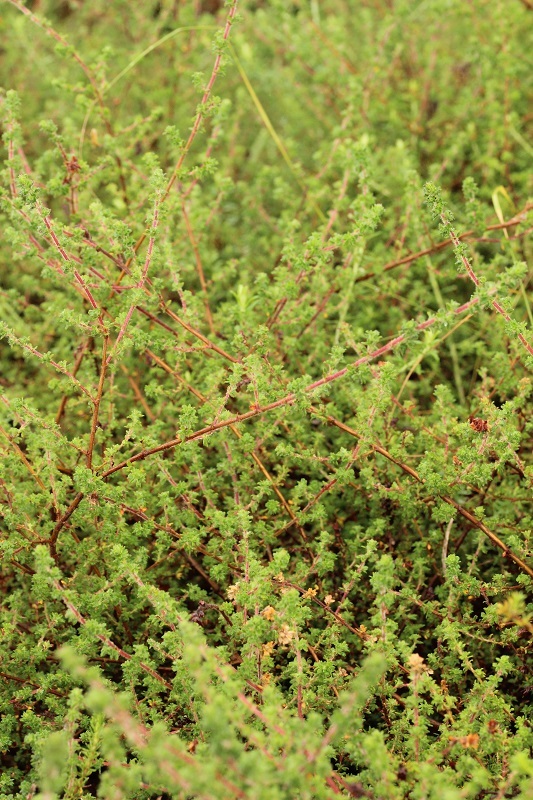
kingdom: Plantae
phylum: Tracheophyta
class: Magnoliopsida
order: Rosales
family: Rosaceae
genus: Cliffortia
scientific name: Cliffortia filicaulis
